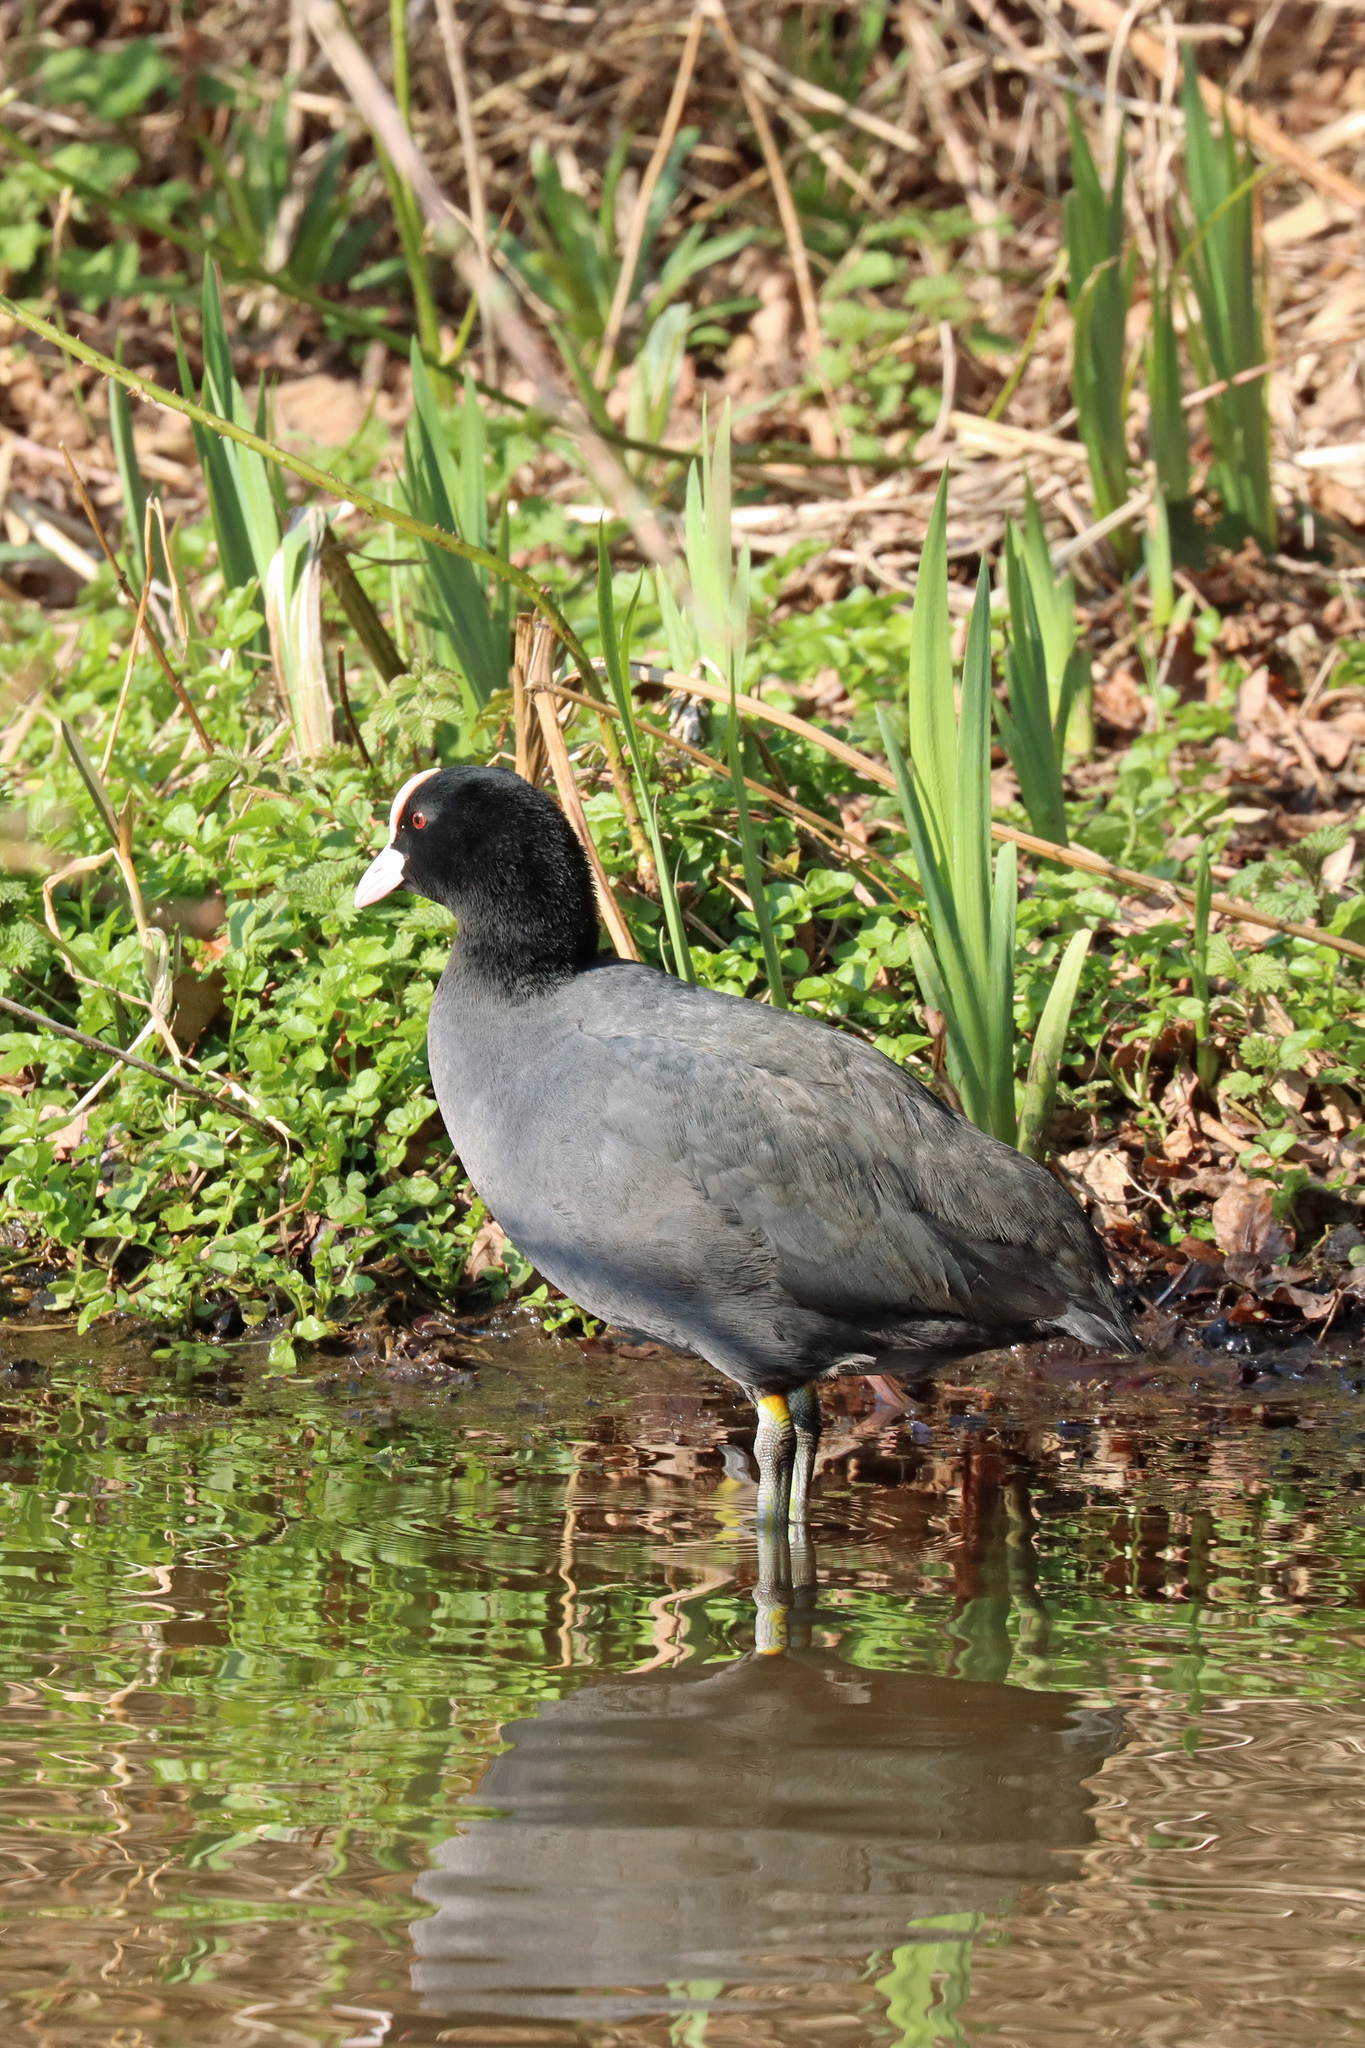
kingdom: Animalia
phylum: Chordata
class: Aves
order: Gruiformes
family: Rallidae
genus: Fulica
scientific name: Fulica atra
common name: Eurasian coot
